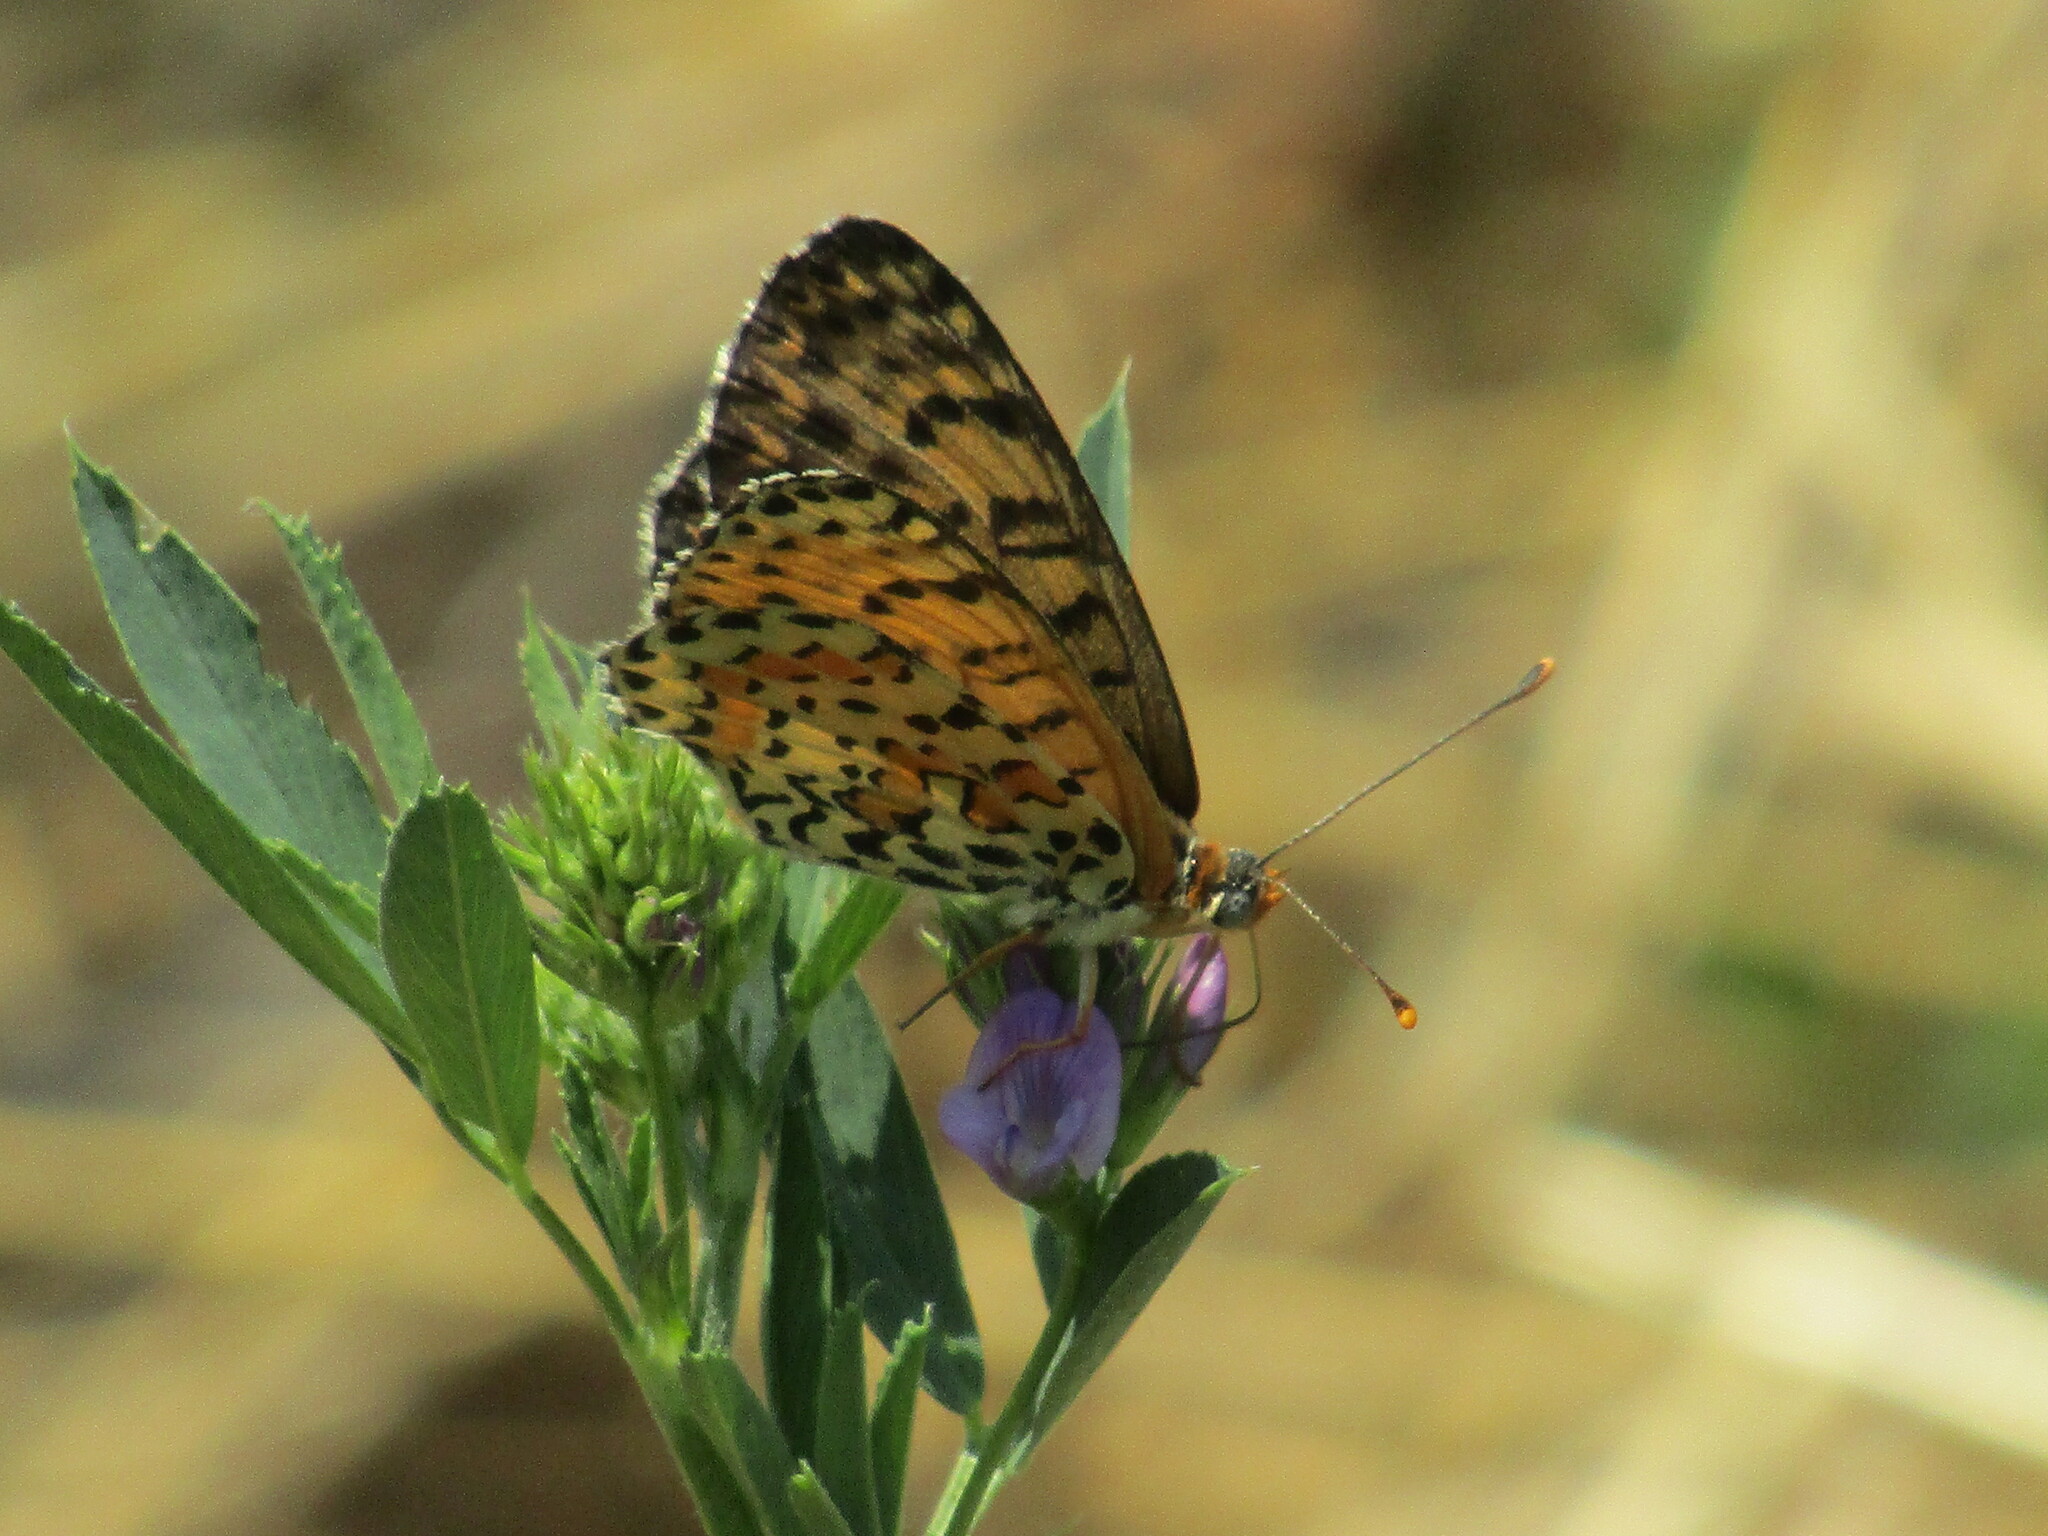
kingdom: Animalia
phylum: Arthropoda
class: Insecta
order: Lepidoptera
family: Nymphalidae
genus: Melitaea
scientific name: Melitaea didyma
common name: Spotted fritillary
